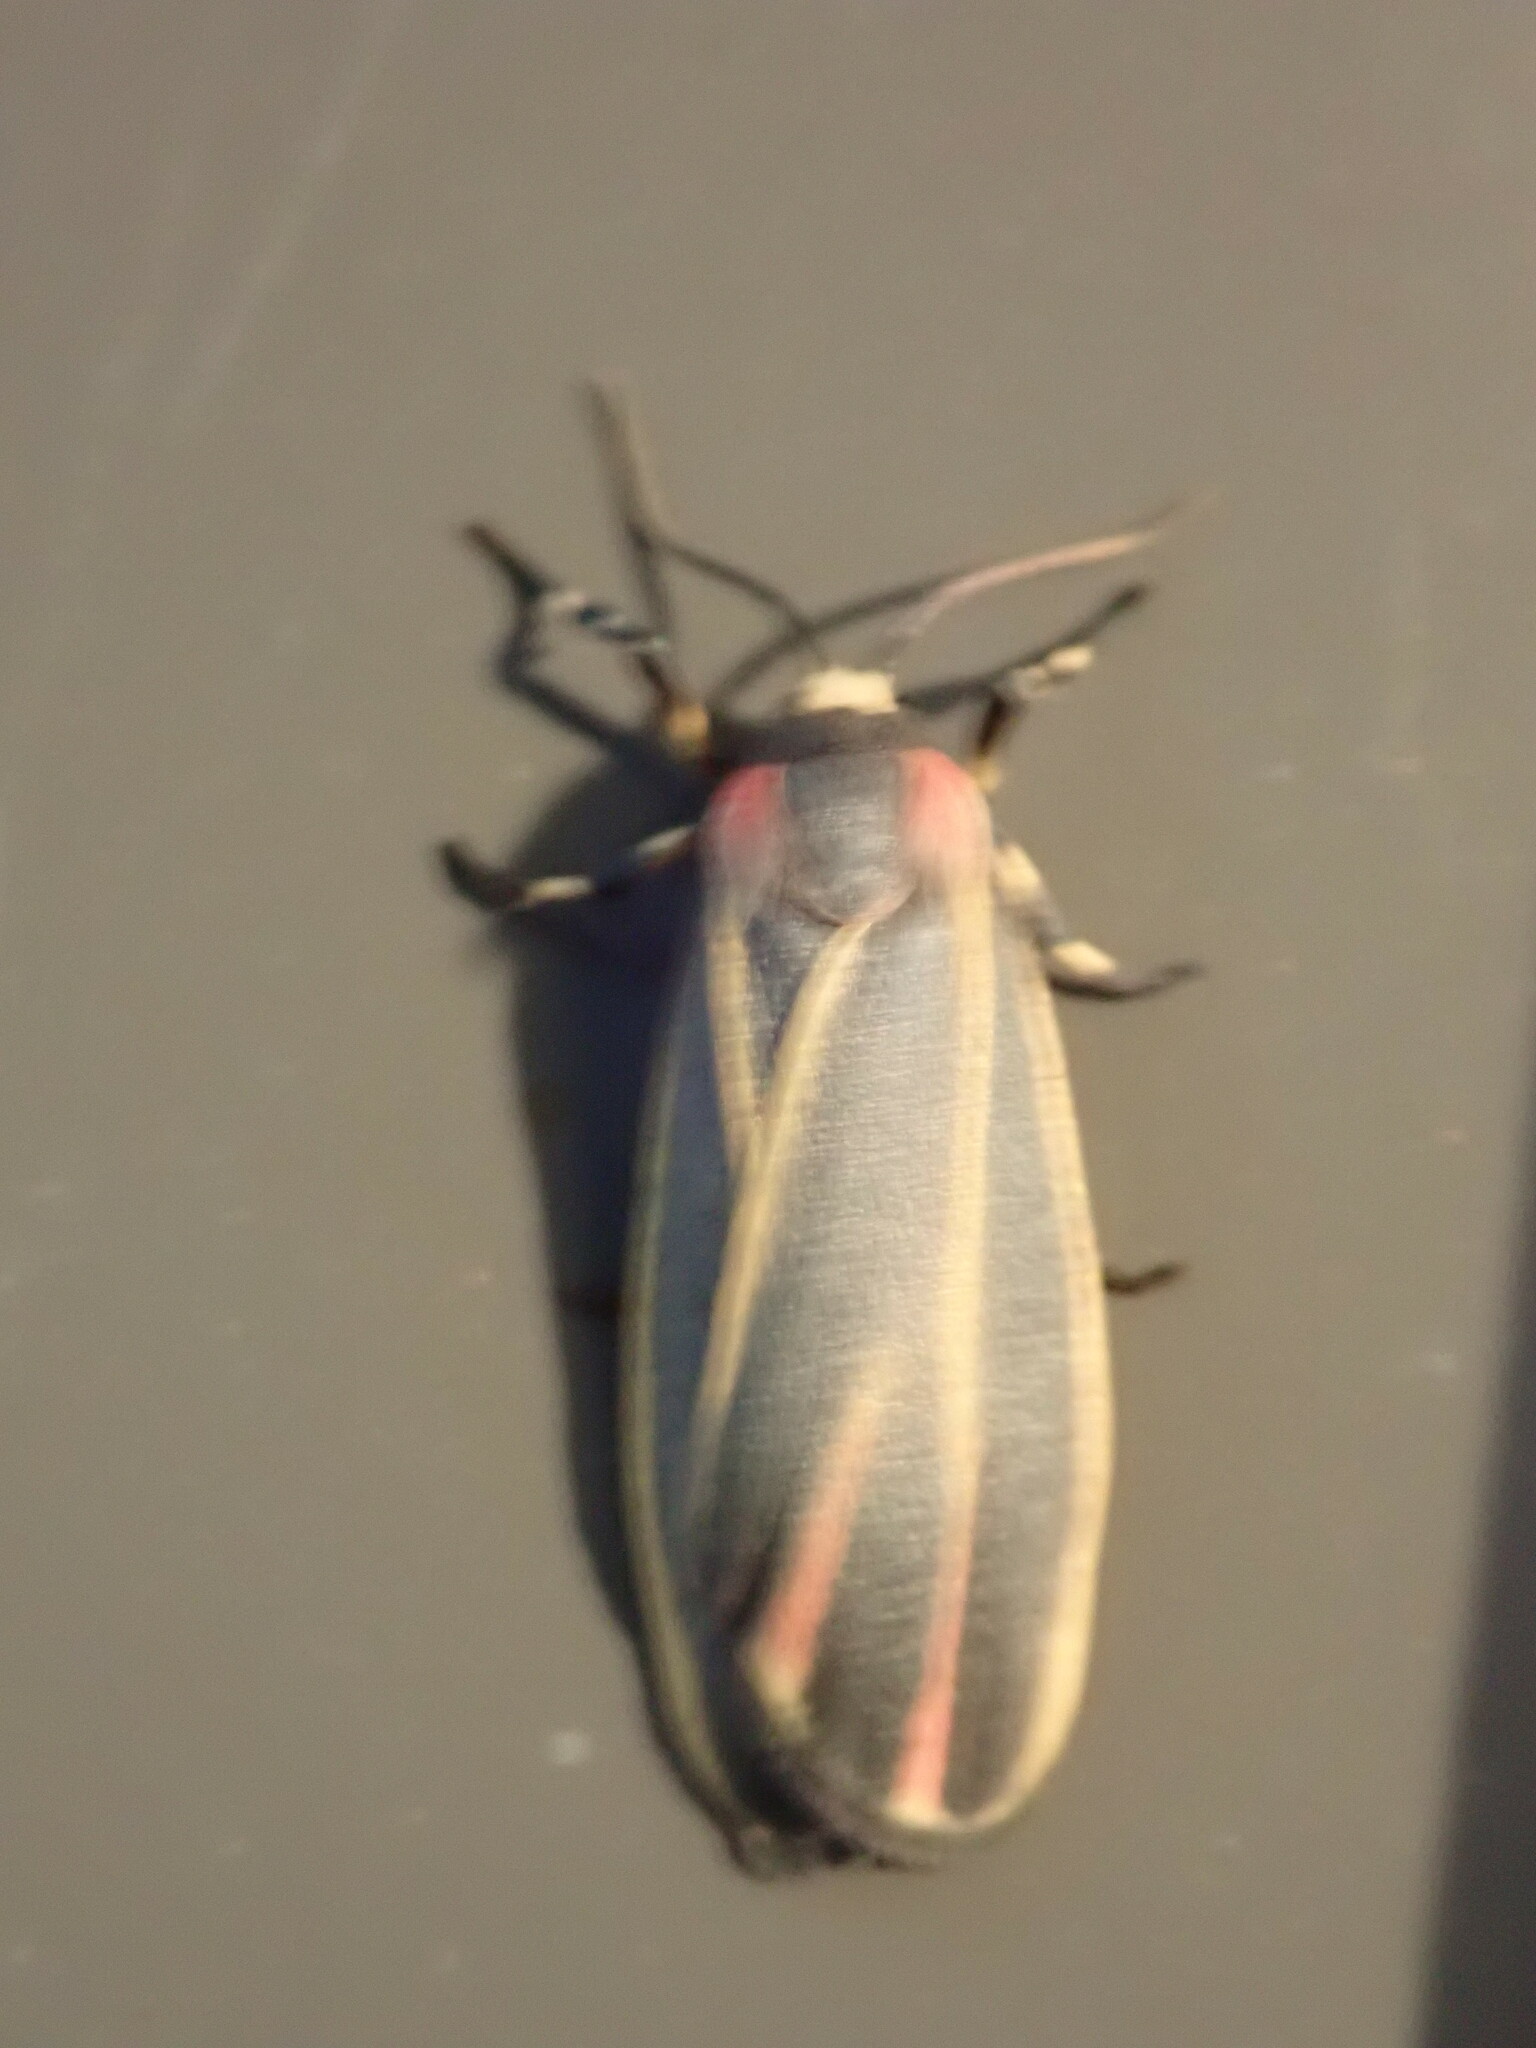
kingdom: Animalia
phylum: Arthropoda
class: Insecta
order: Lepidoptera
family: Erebidae
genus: Hypoprepia
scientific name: Hypoprepia fucosa
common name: Painted lichen moth
